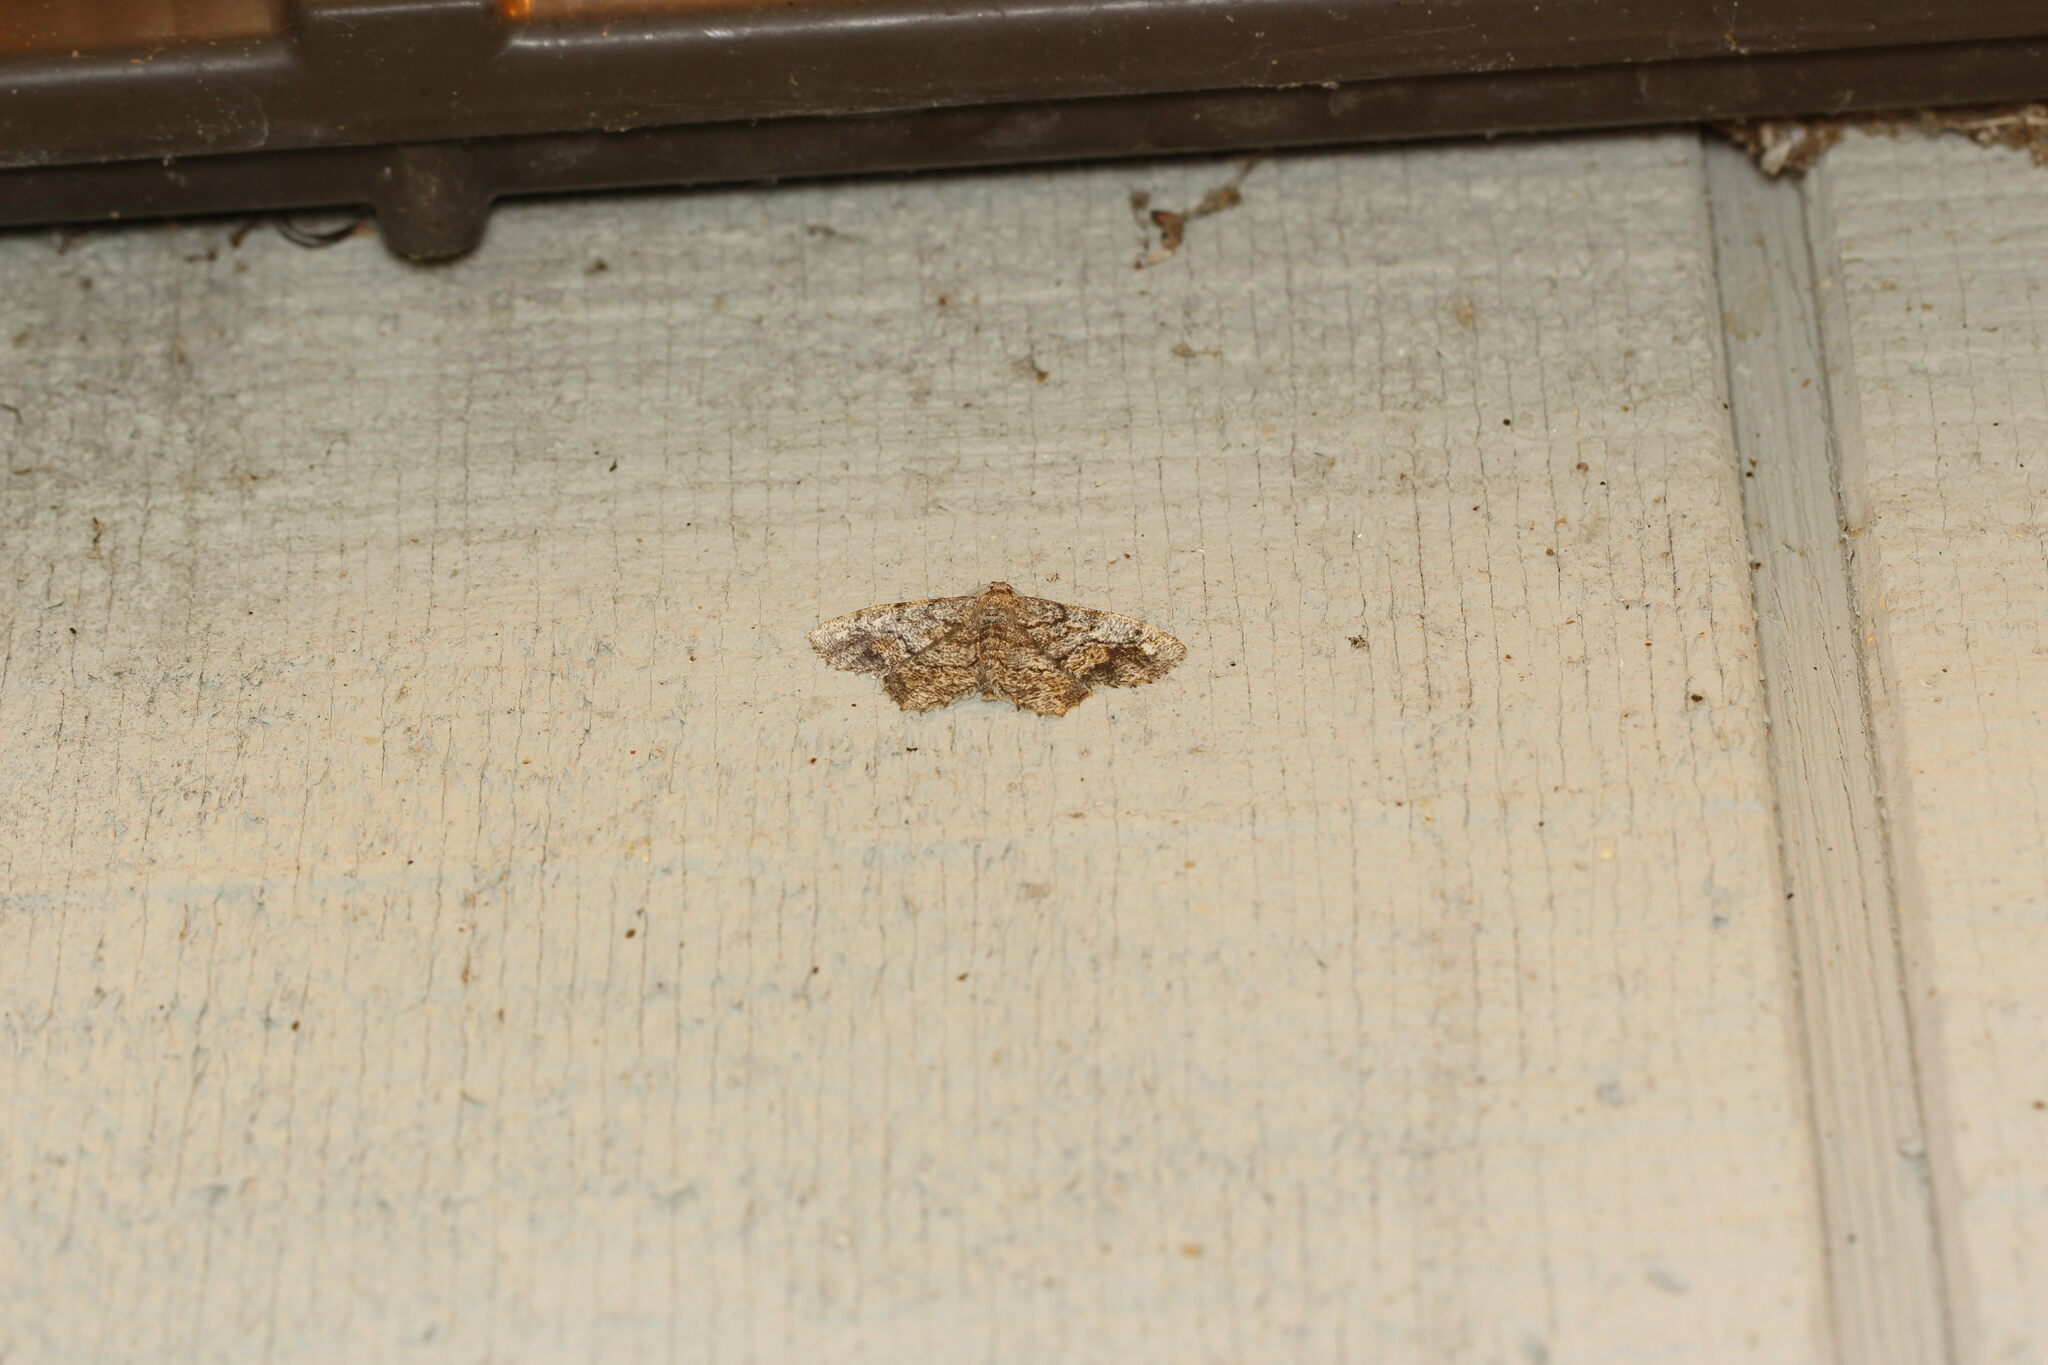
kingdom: Animalia
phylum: Arthropoda
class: Insecta
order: Lepidoptera
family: Geometridae
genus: Hypagyrtis
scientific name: Hypagyrtis unipunctata
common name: One-spotted variant
